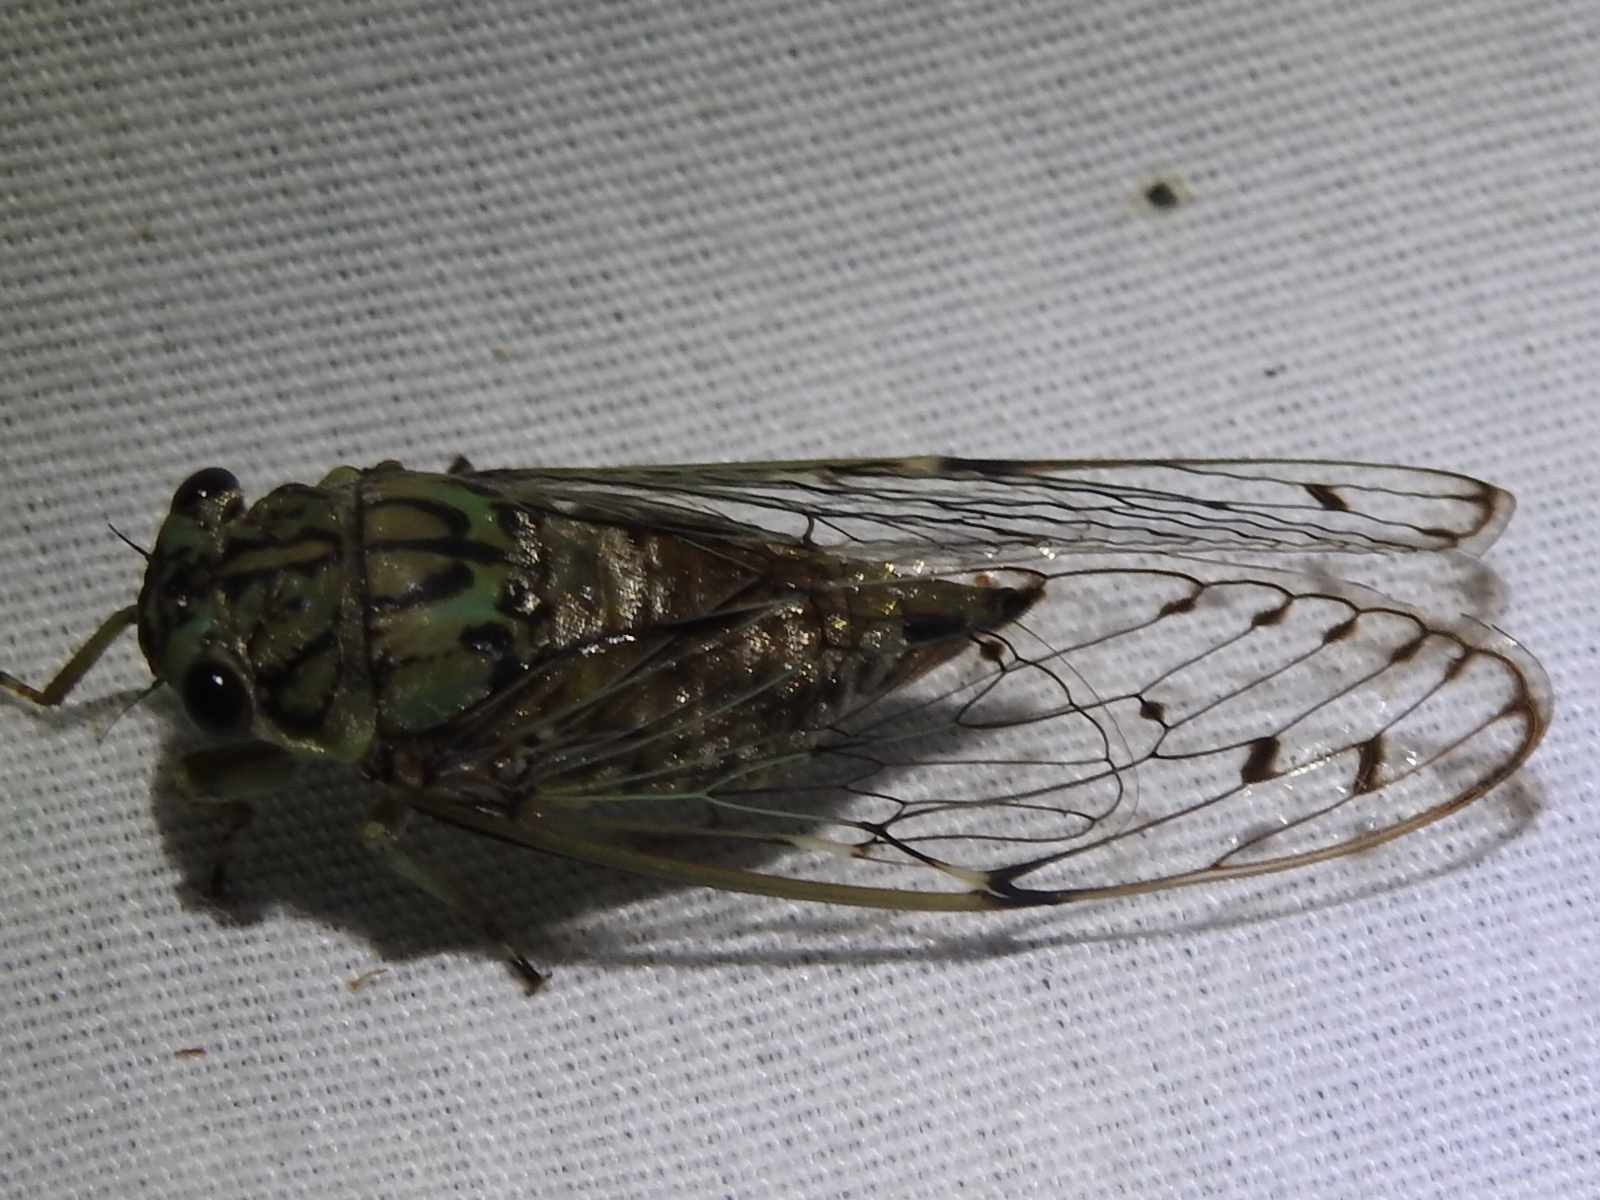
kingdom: Animalia
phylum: Arthropoda
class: Insecta
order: Hemiptera
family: Cicadidae
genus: Neocicada
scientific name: Neocicada hieroglyphica
